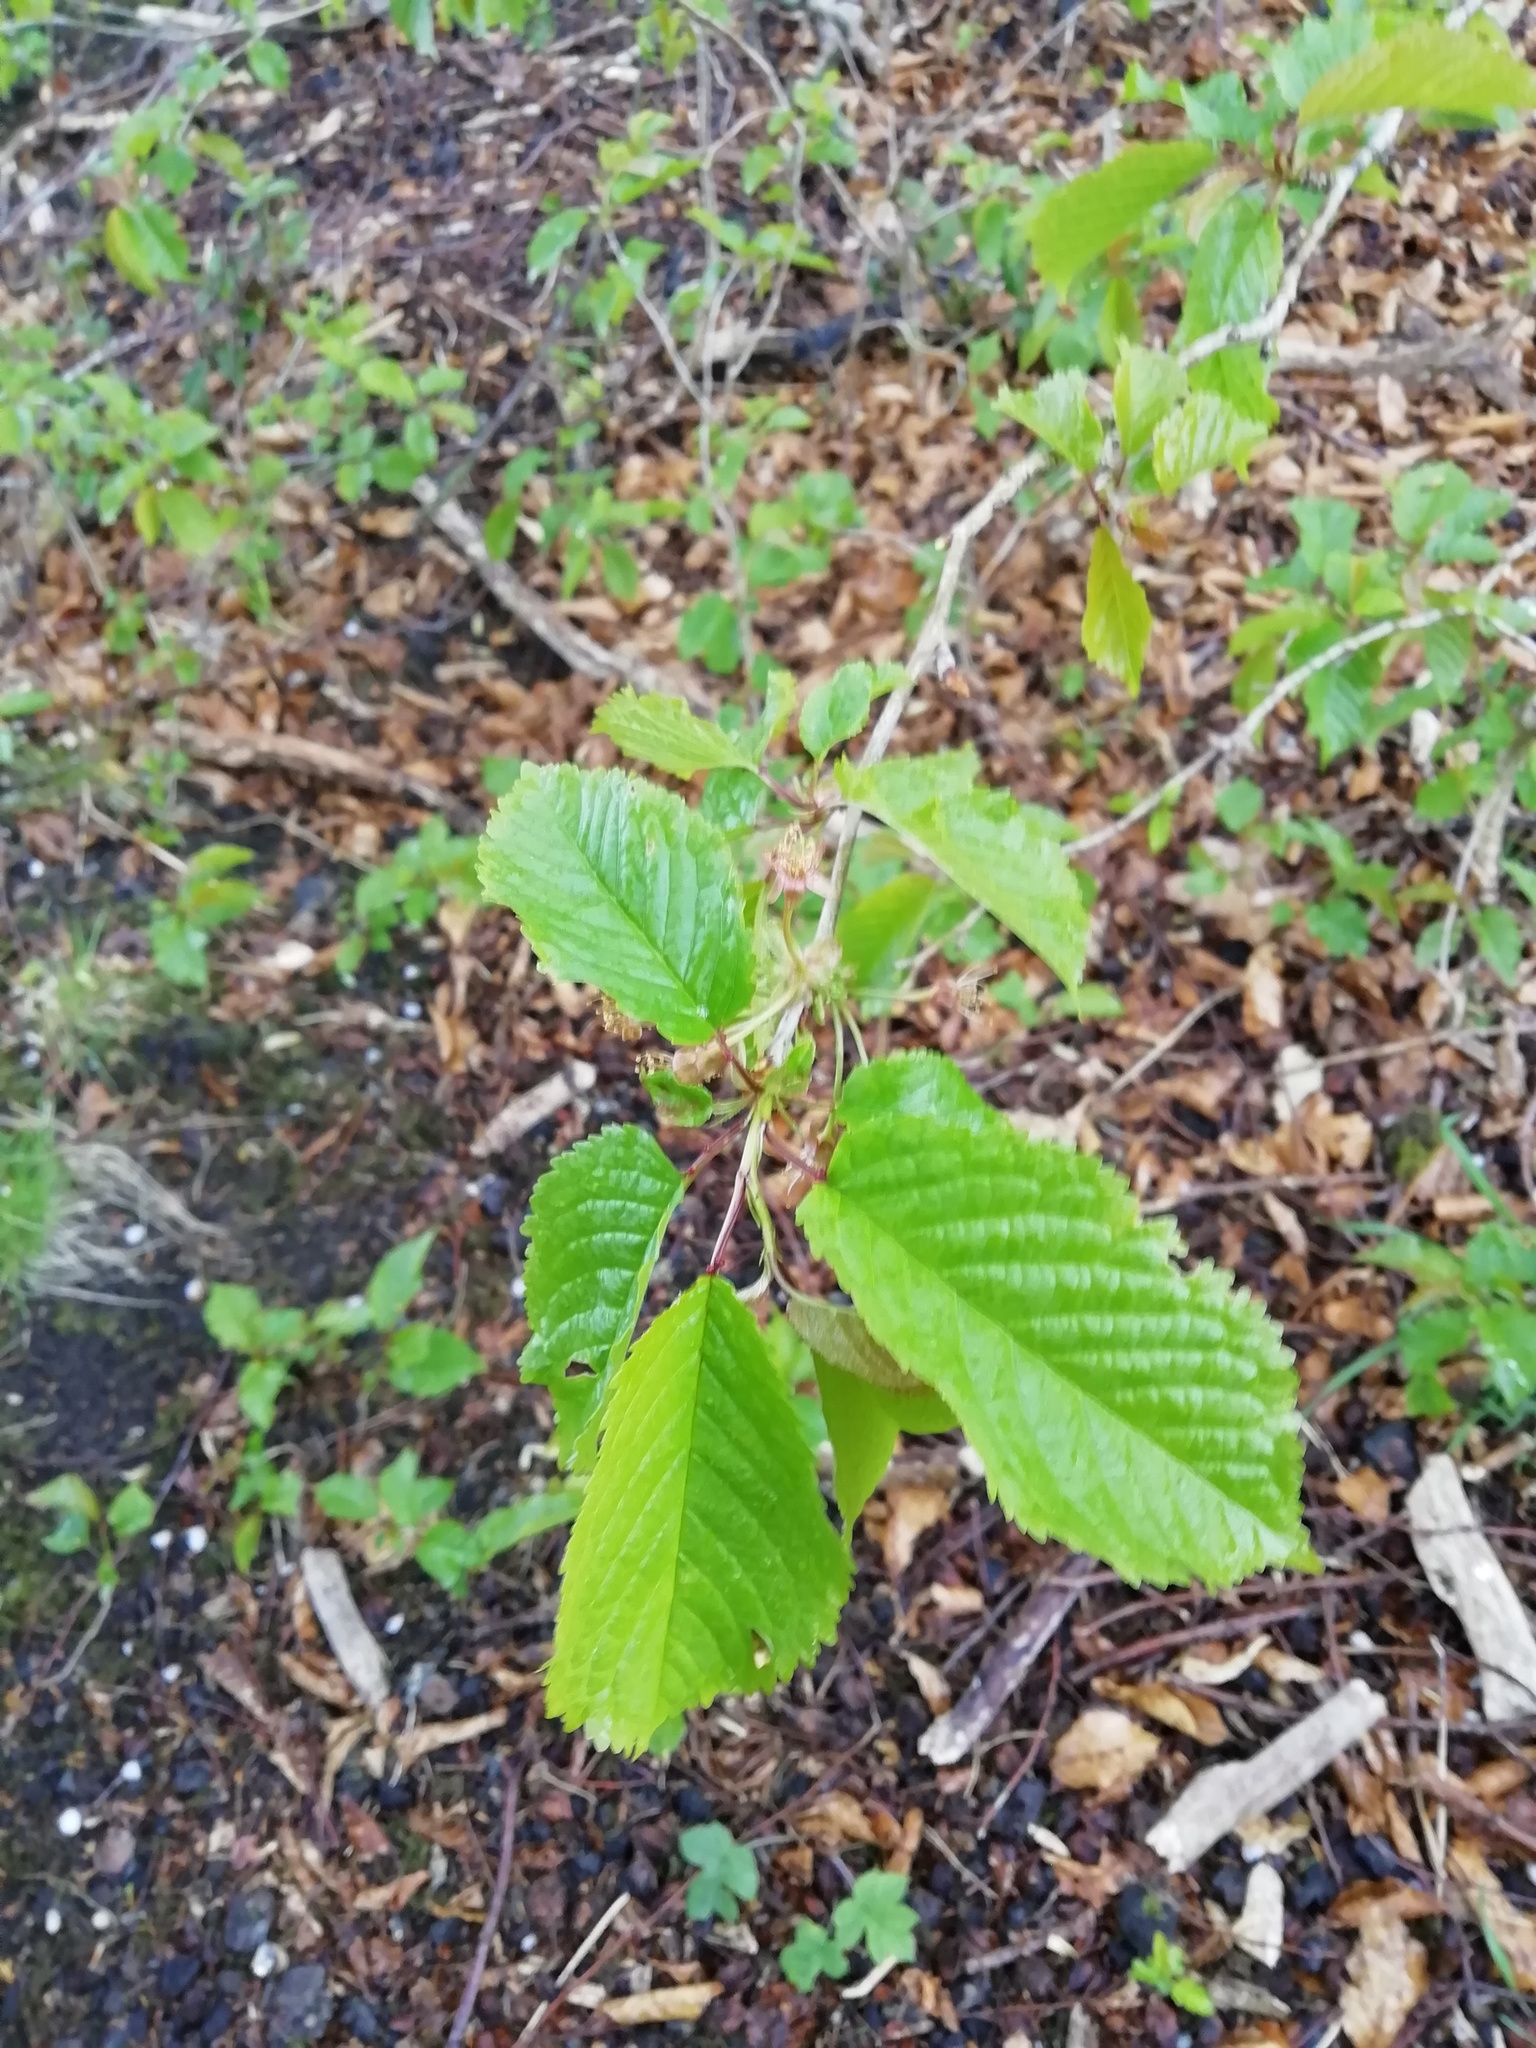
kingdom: Plantae
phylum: Tracheophyta
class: Magnoliopsida
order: Rosales
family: Rosaceae
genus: Prunus
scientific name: Prunus avium
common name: Sweet cherry
